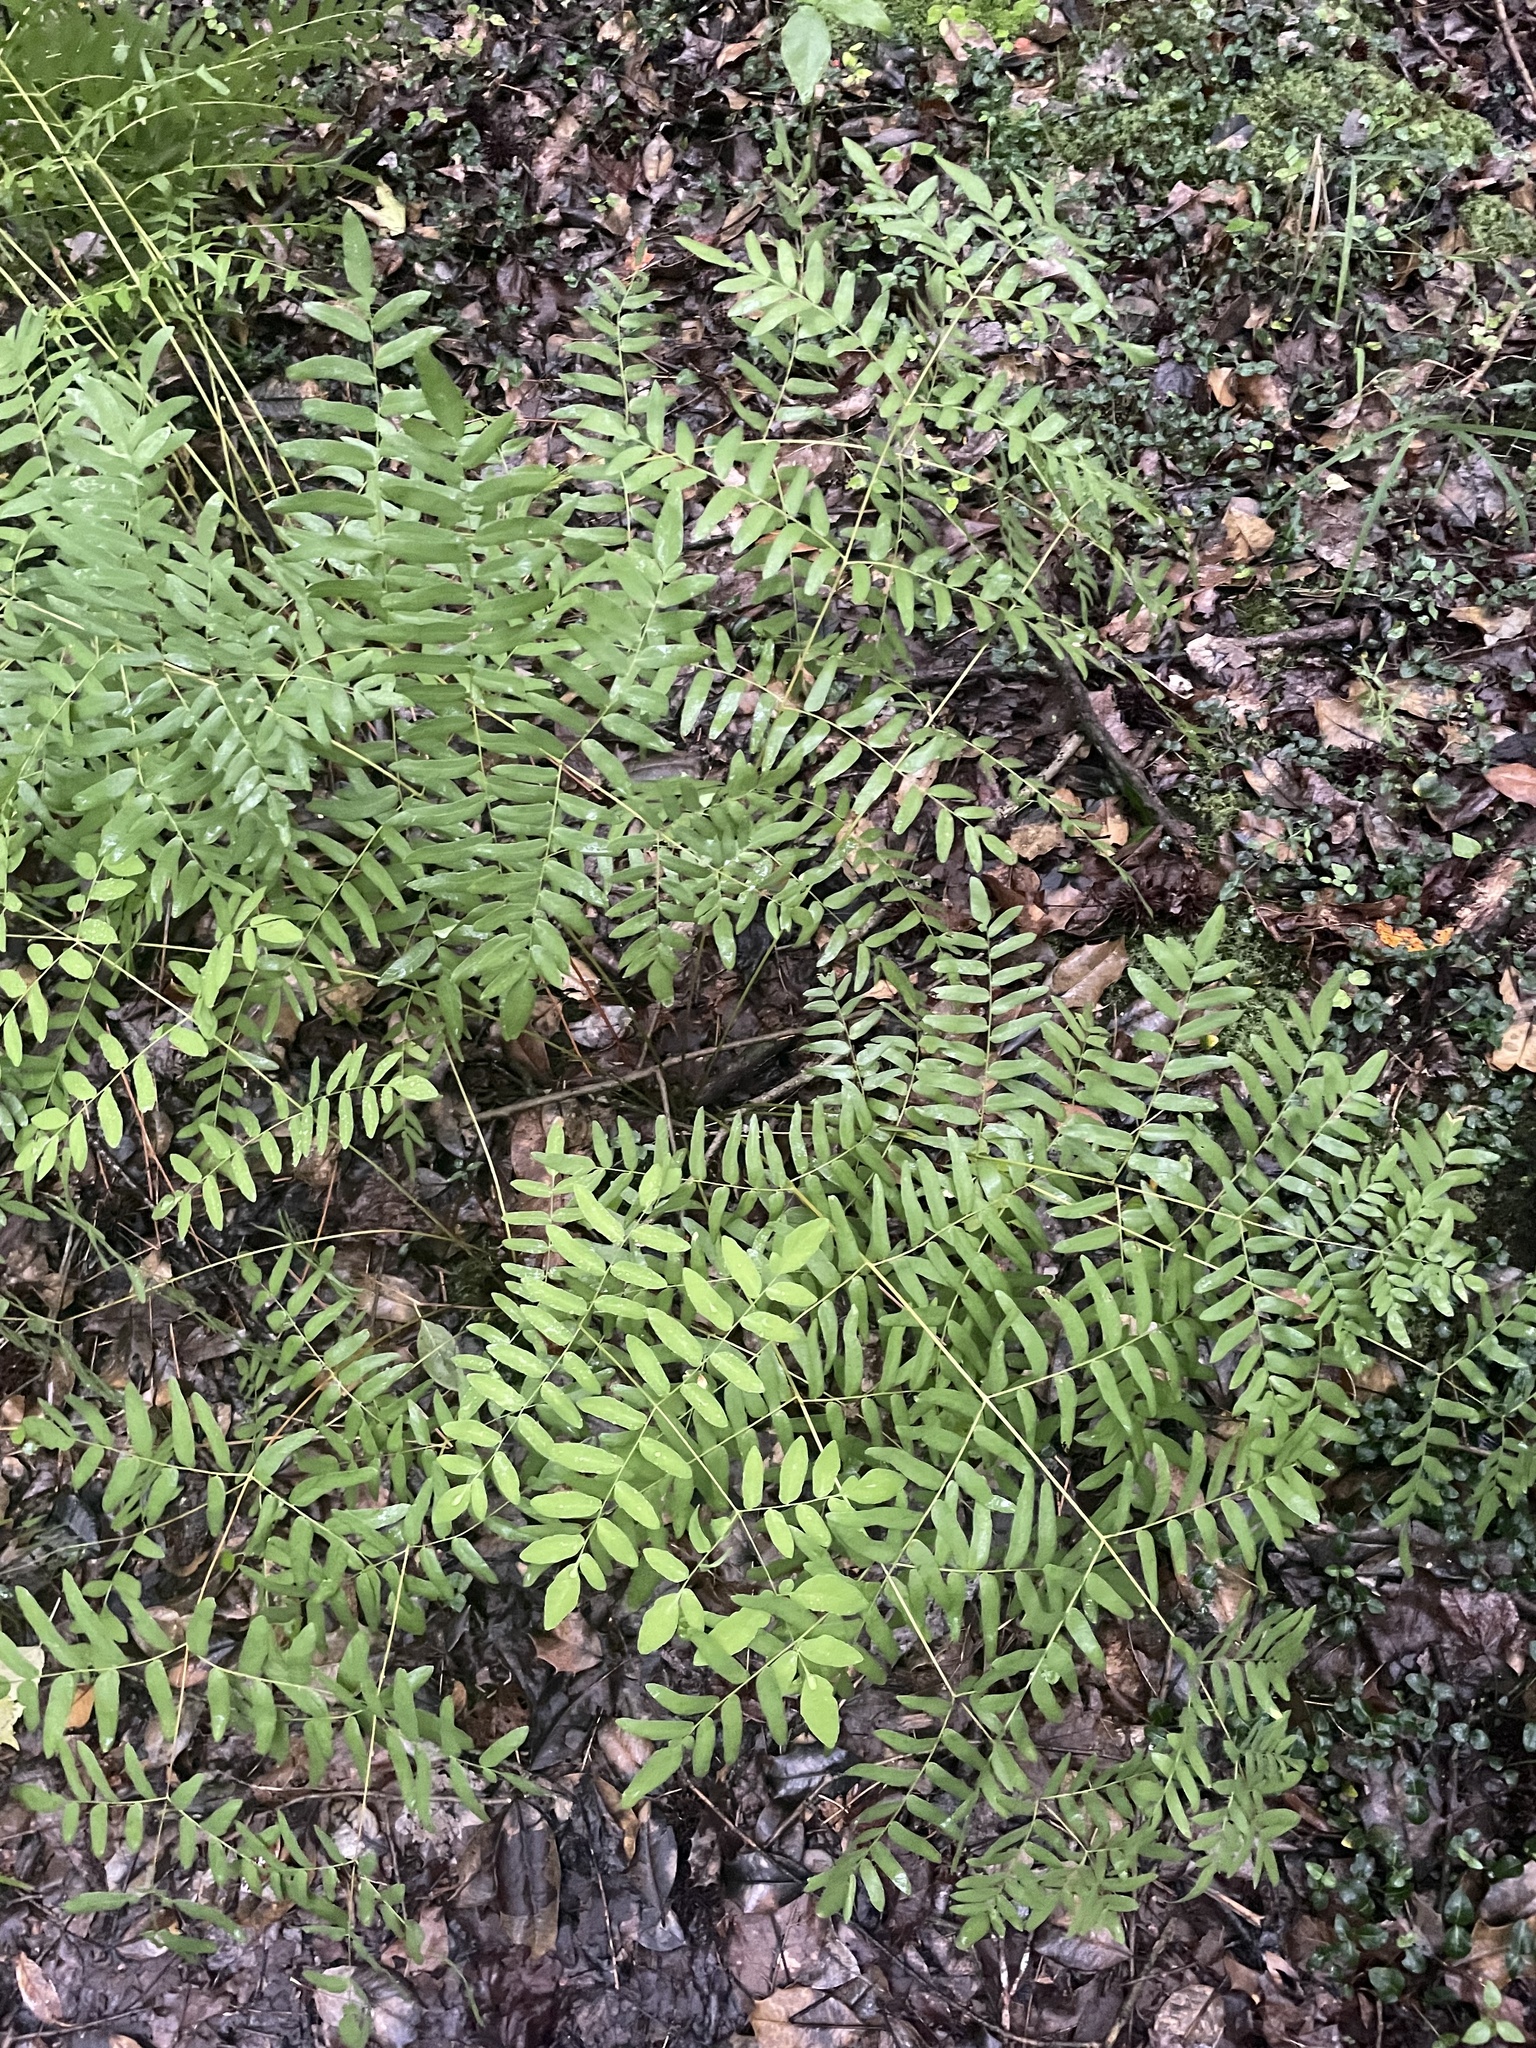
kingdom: Plantae
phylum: Tracheophyta
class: Polypodiopsida
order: Osmundales
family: Osmundaceae
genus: Osmunda
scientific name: Osmunda spectabilis
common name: American royal fern
